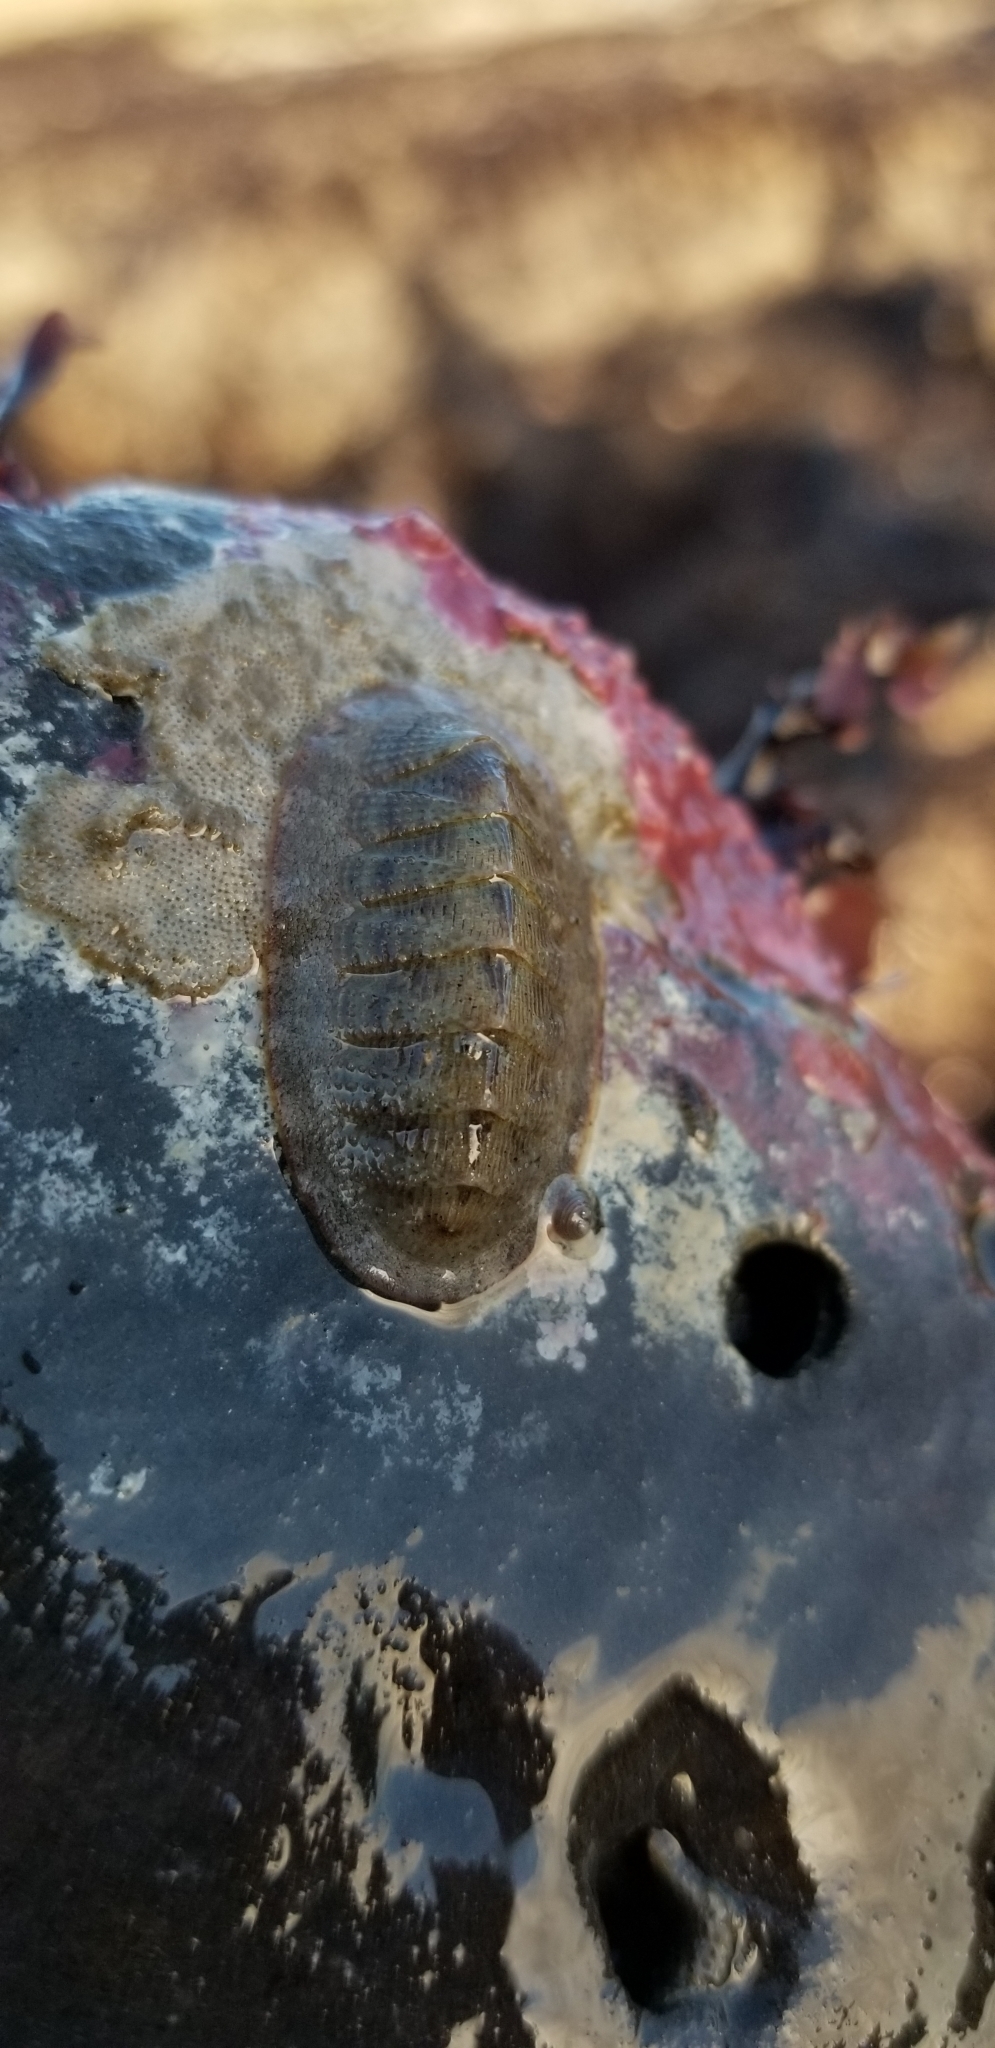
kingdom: Animalia
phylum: Mollusca
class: Polyplacophora
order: Chitonida
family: Ischnochitonidae
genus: Lepidozona
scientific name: Lepidozona cooperi
